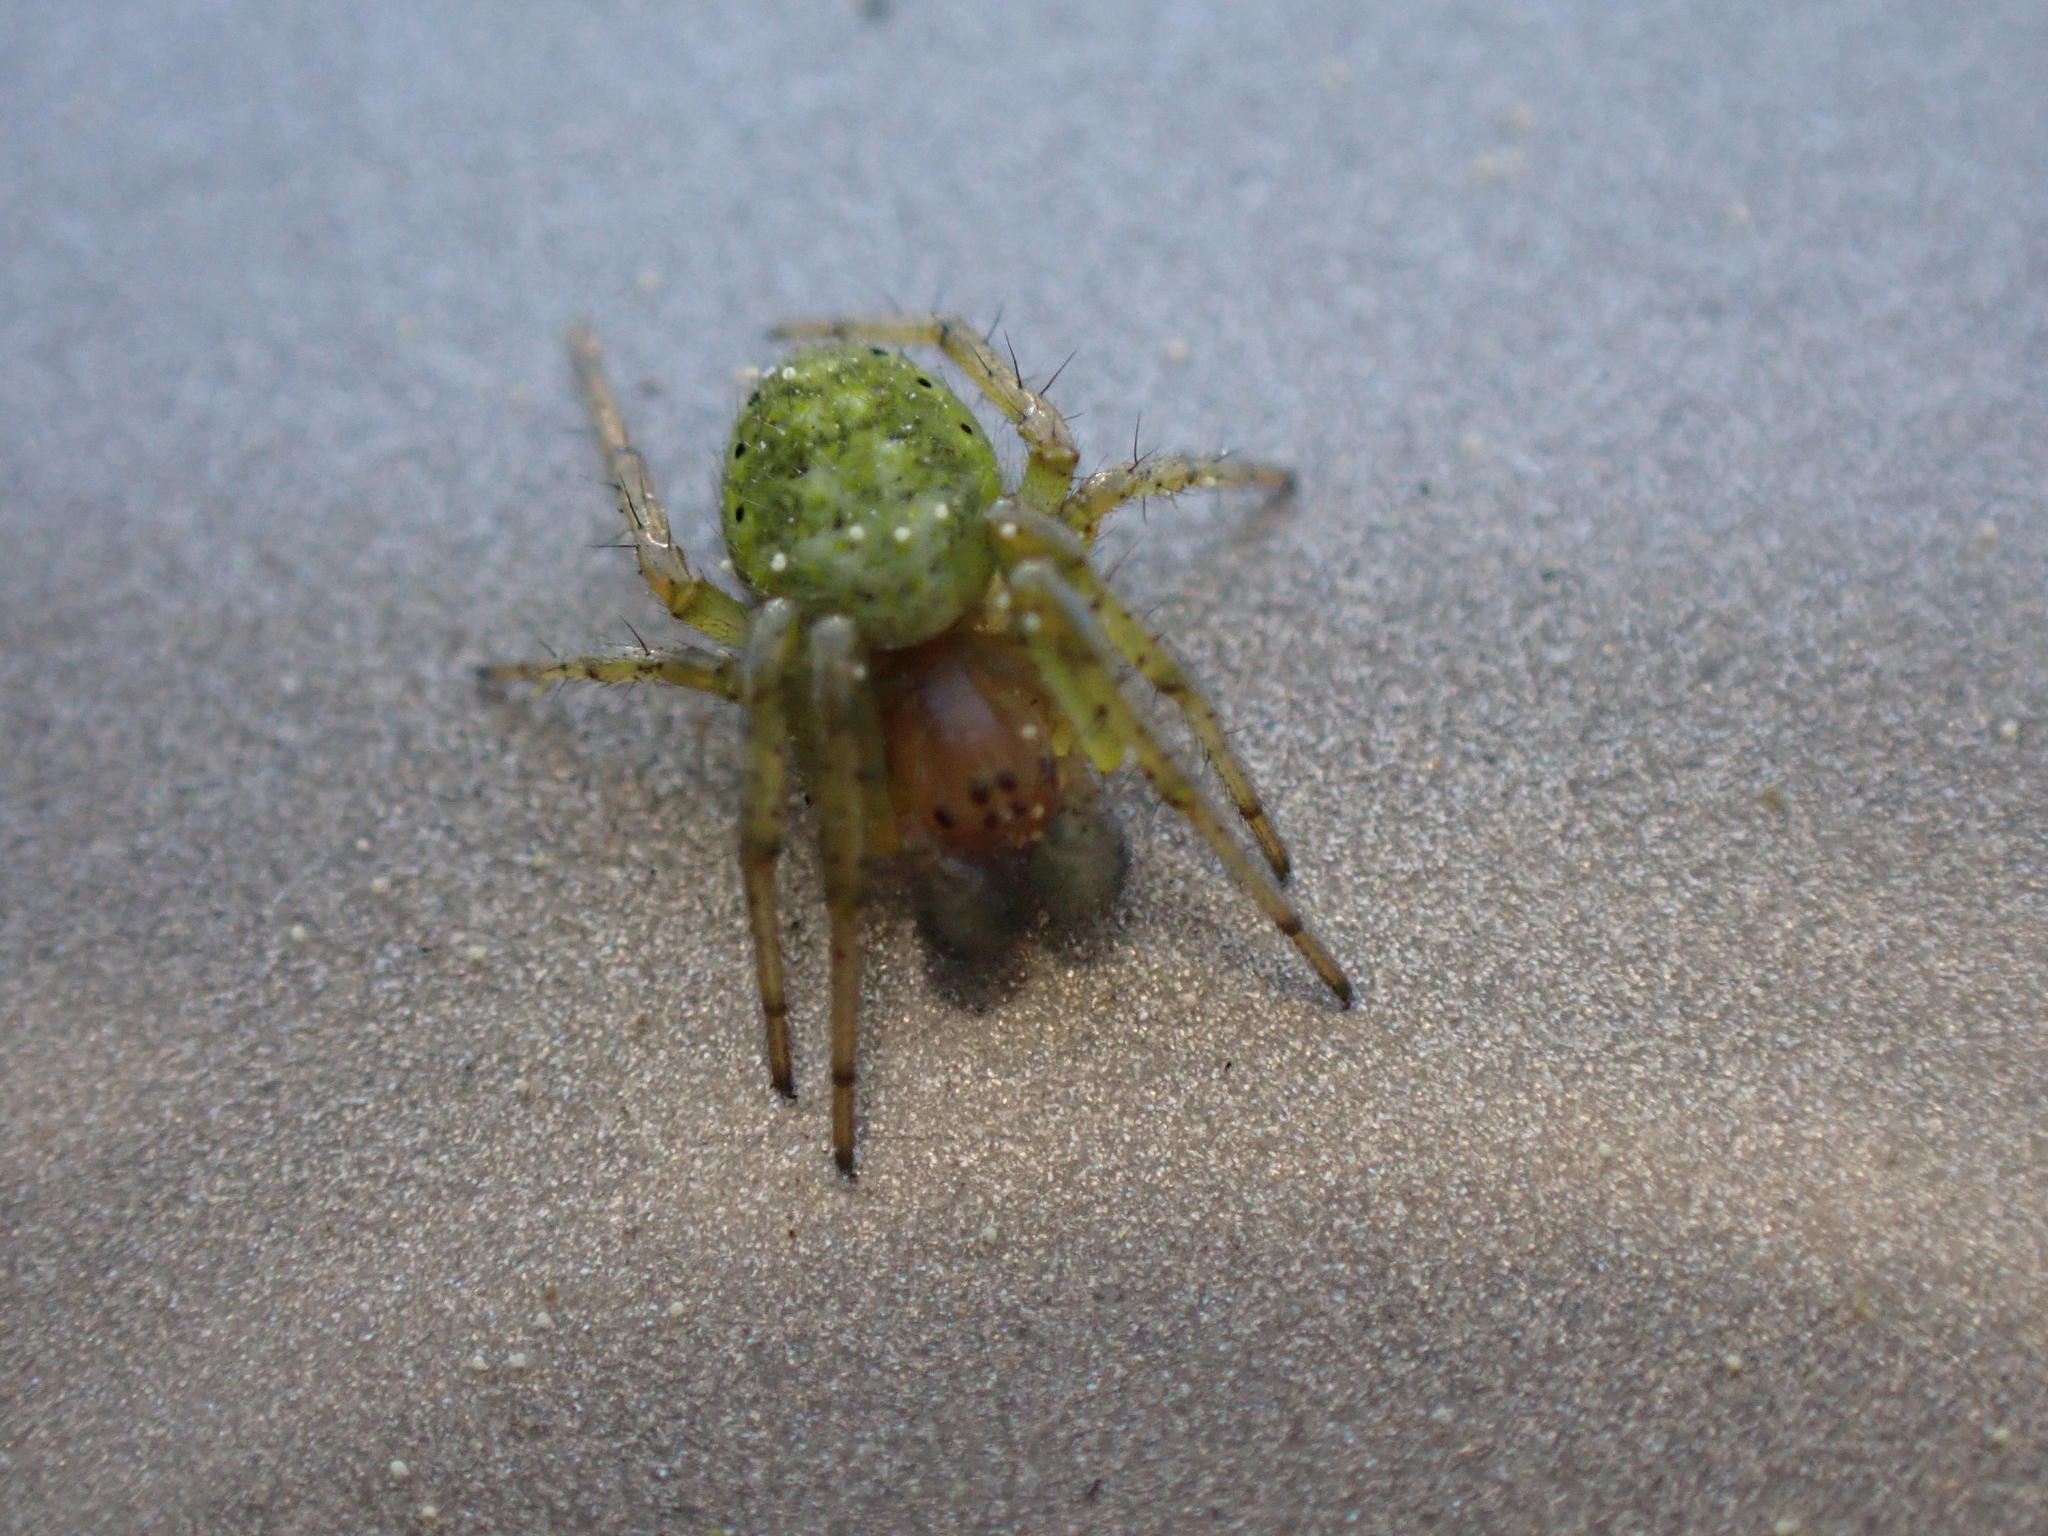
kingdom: Animalia
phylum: Arthropoda
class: Arachnida
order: Araneae
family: Araneidae
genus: Araniella
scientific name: Araniella
